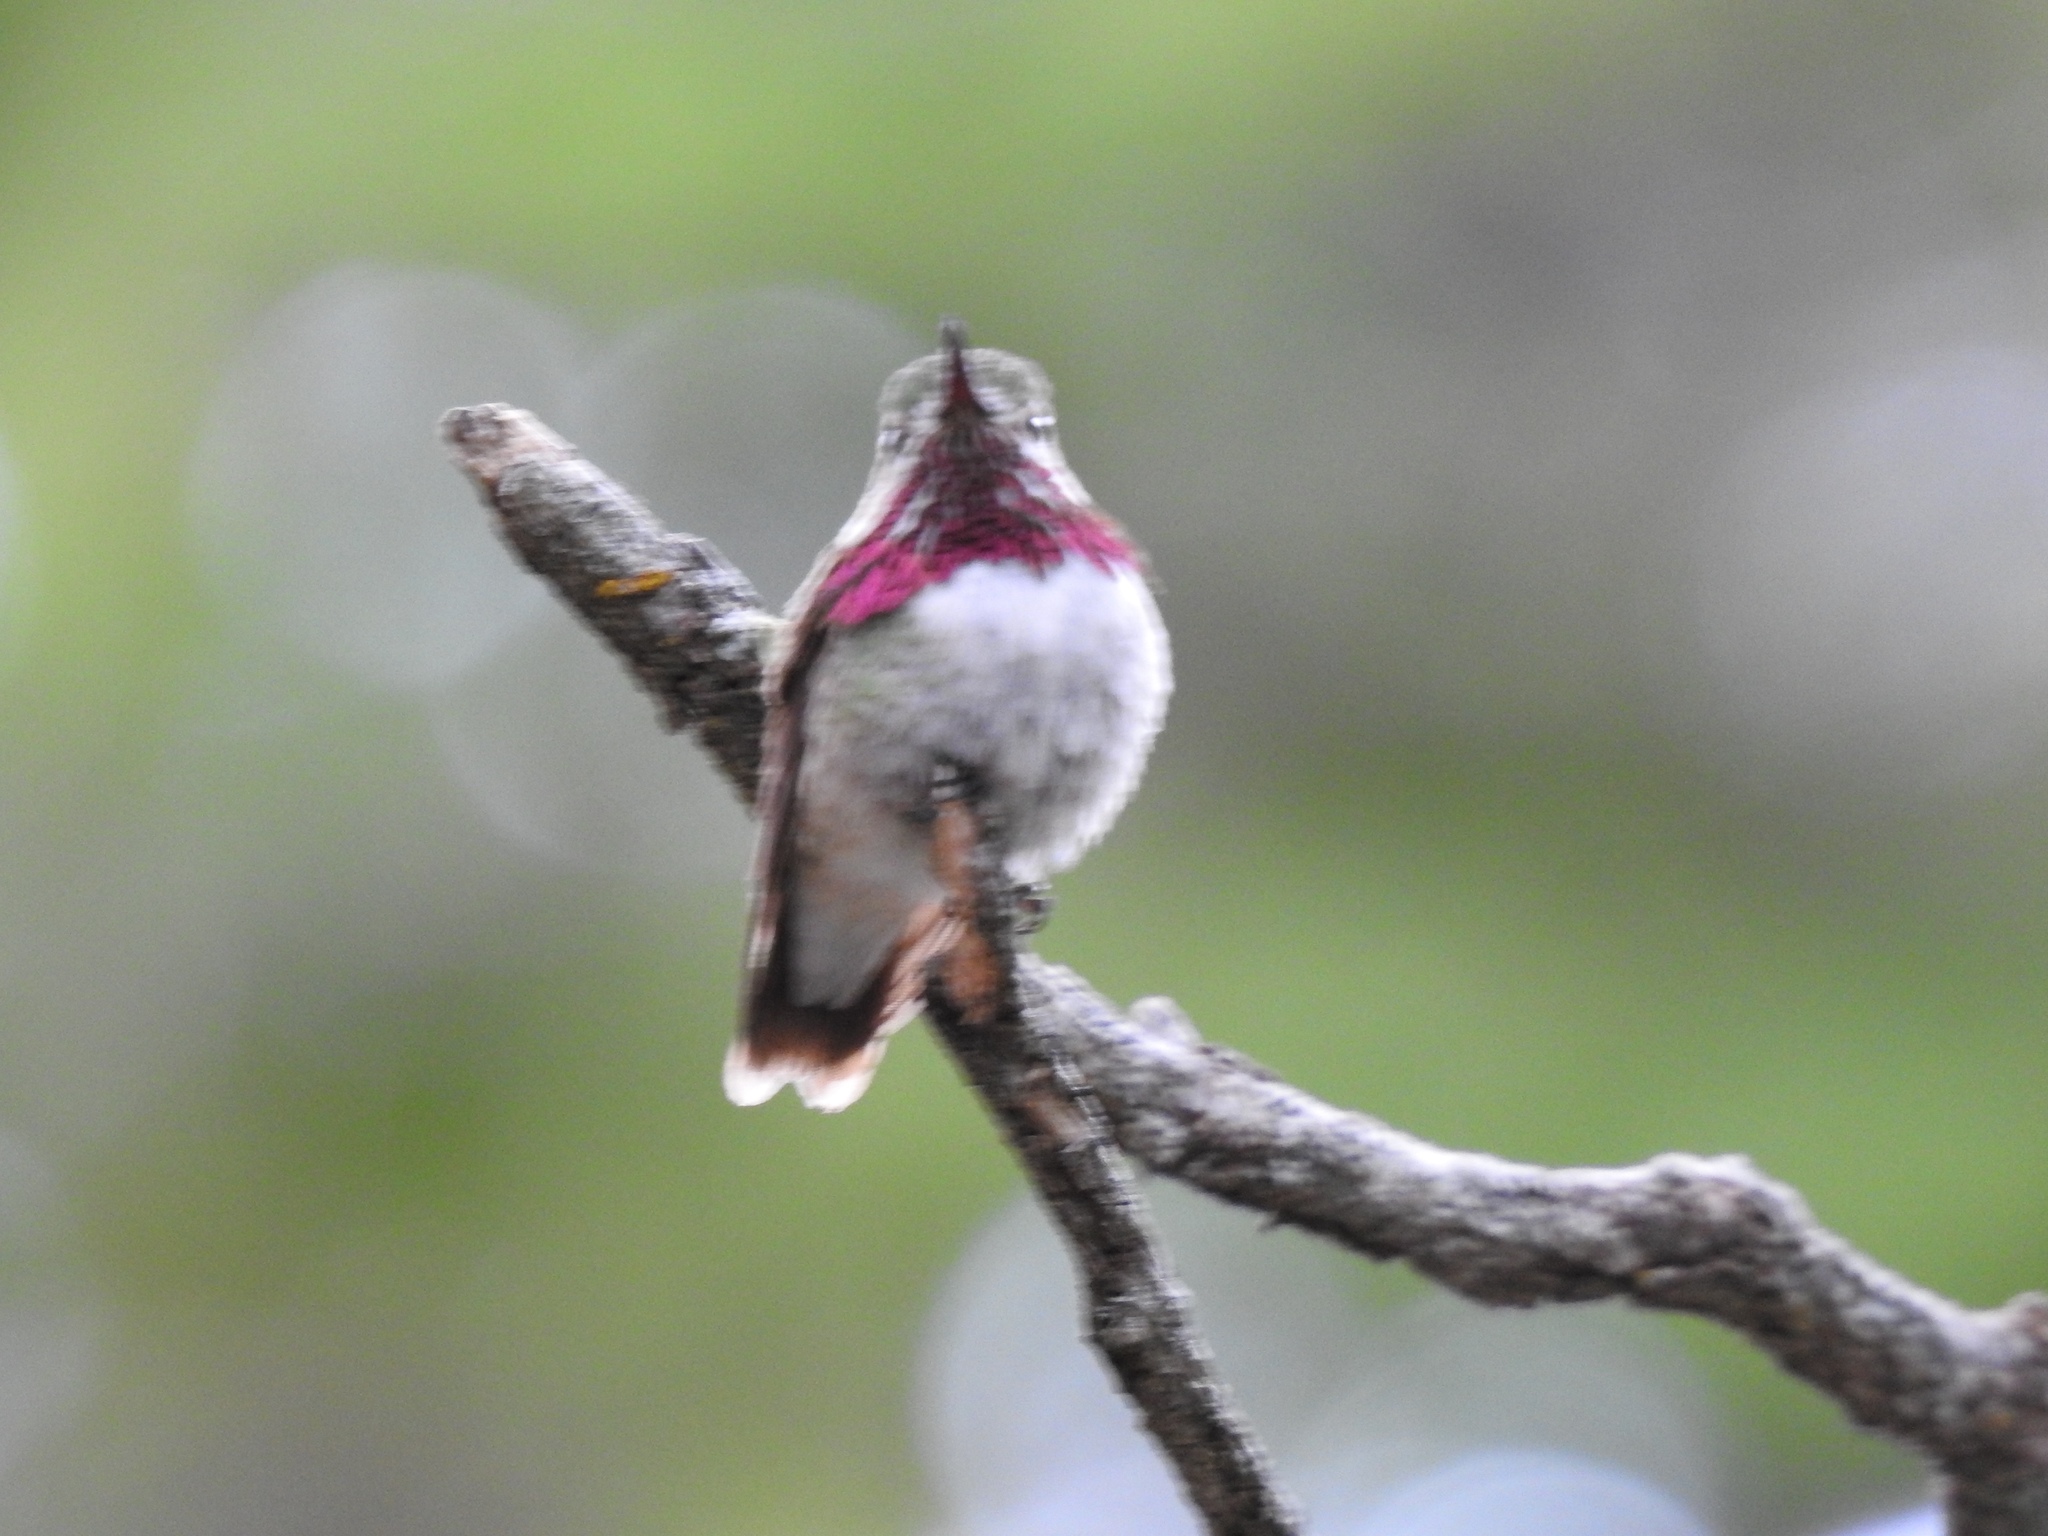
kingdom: Animalia
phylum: Chordata
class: Aves
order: Apodiformes
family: Trochilidae
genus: Selasphorus
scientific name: Selasphorus calliope
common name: Calliope hummingbird
